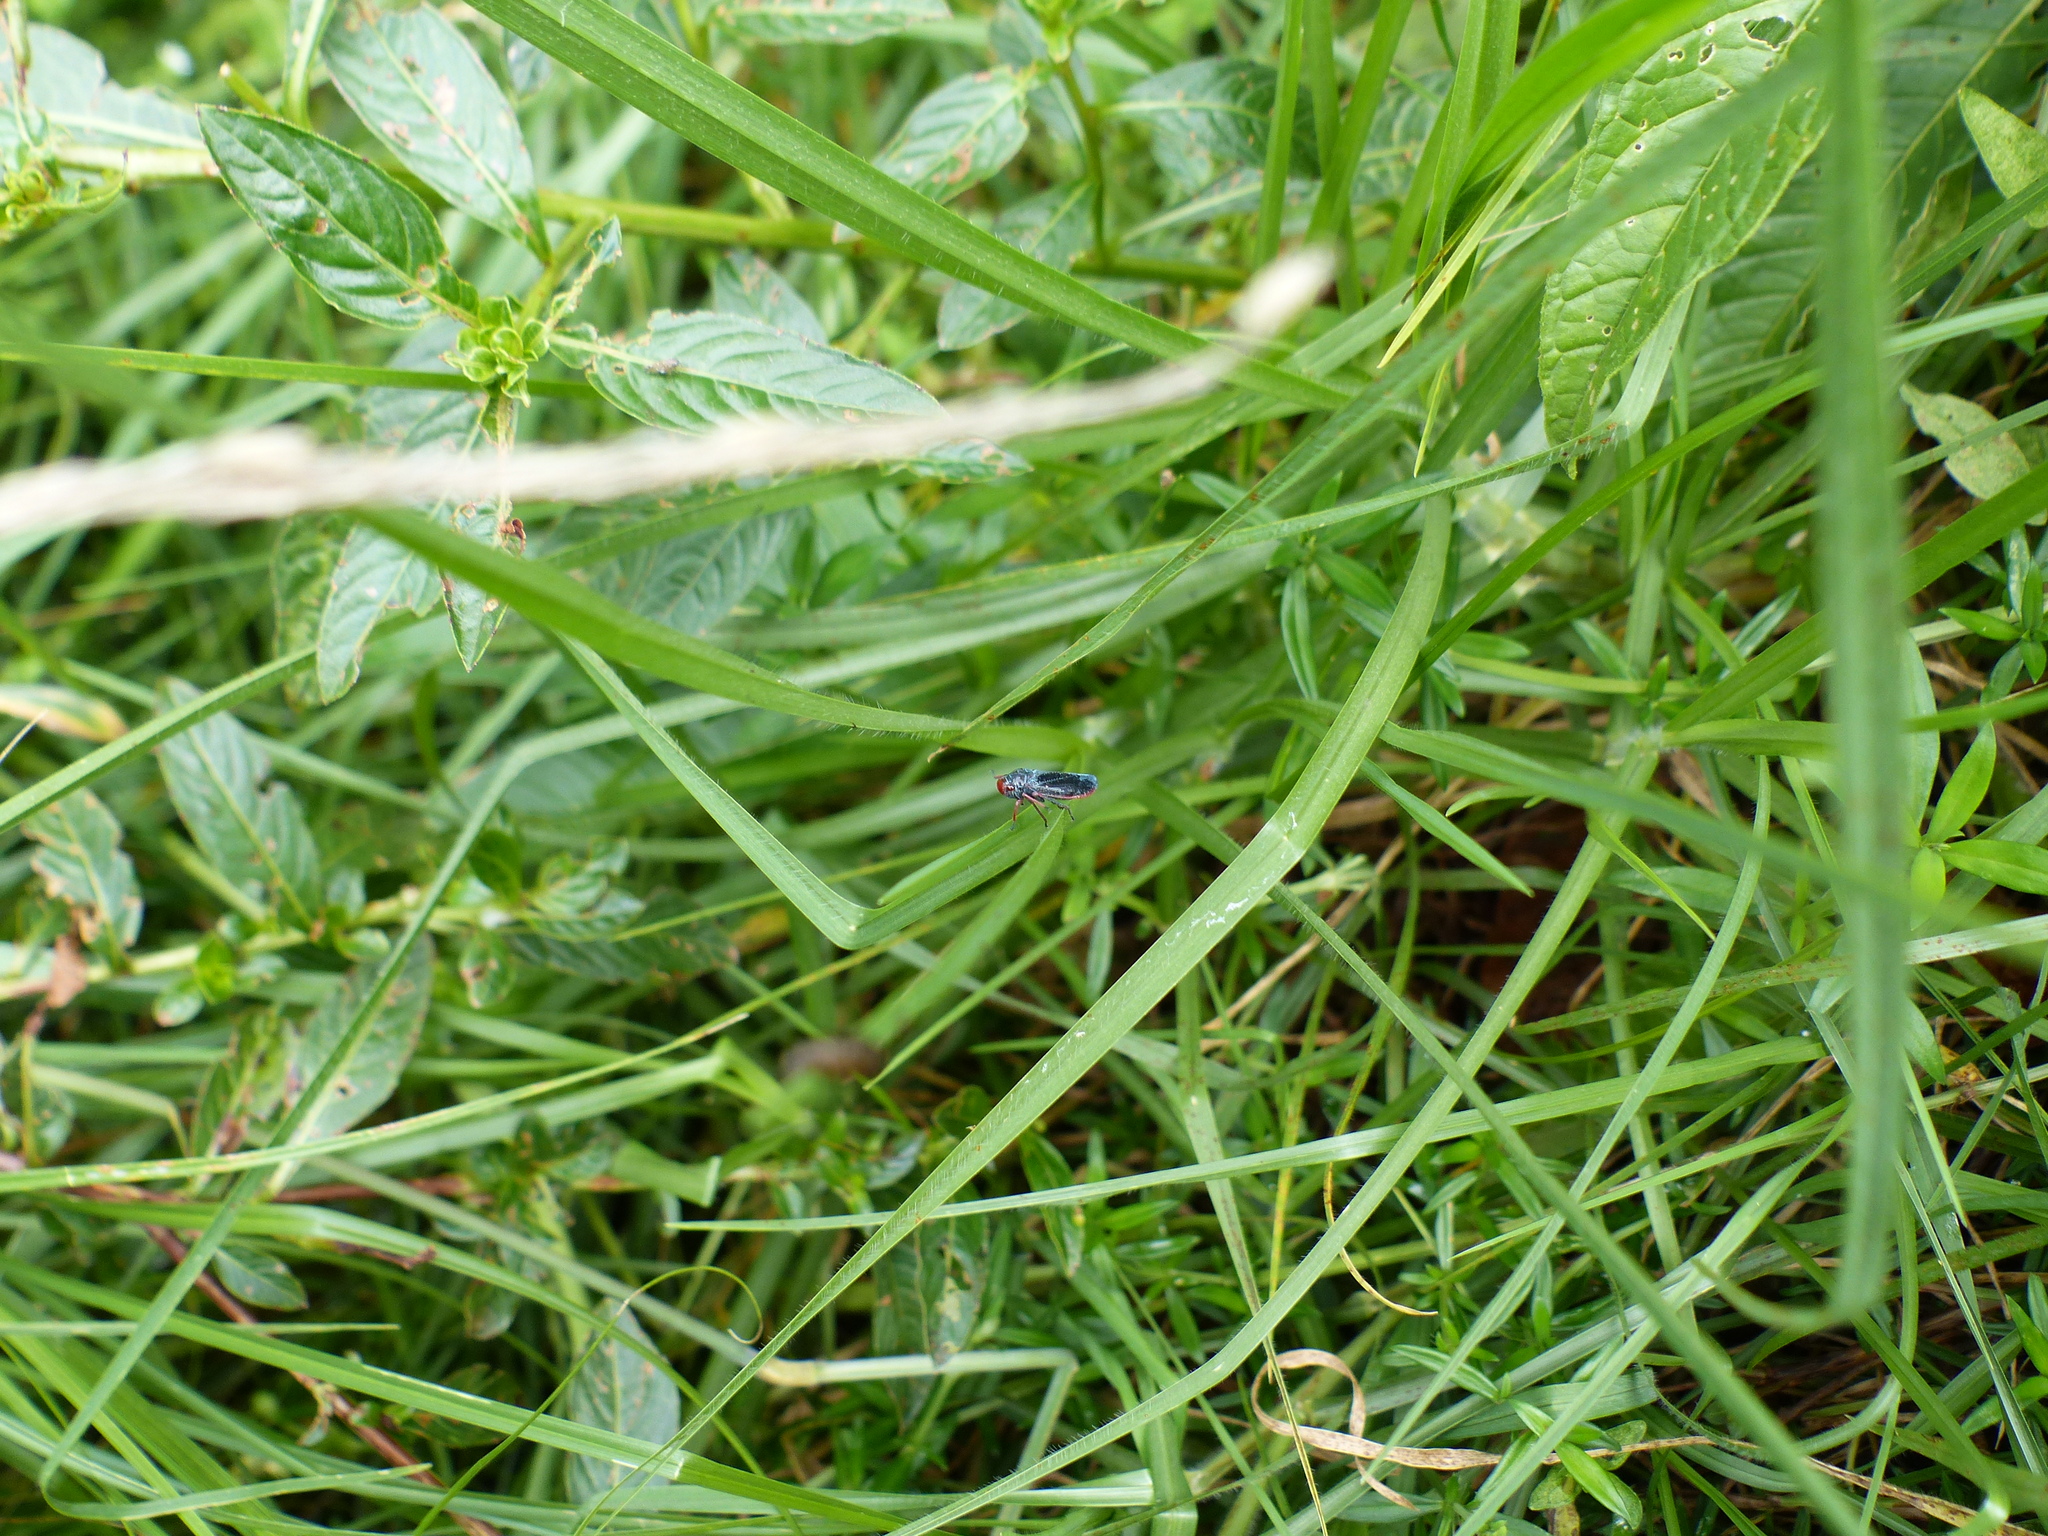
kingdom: Animalia
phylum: Arthropoda
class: Insecta
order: Hemiptera
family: Cicadellidae
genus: Paracatua
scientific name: Paracatua decastroi
